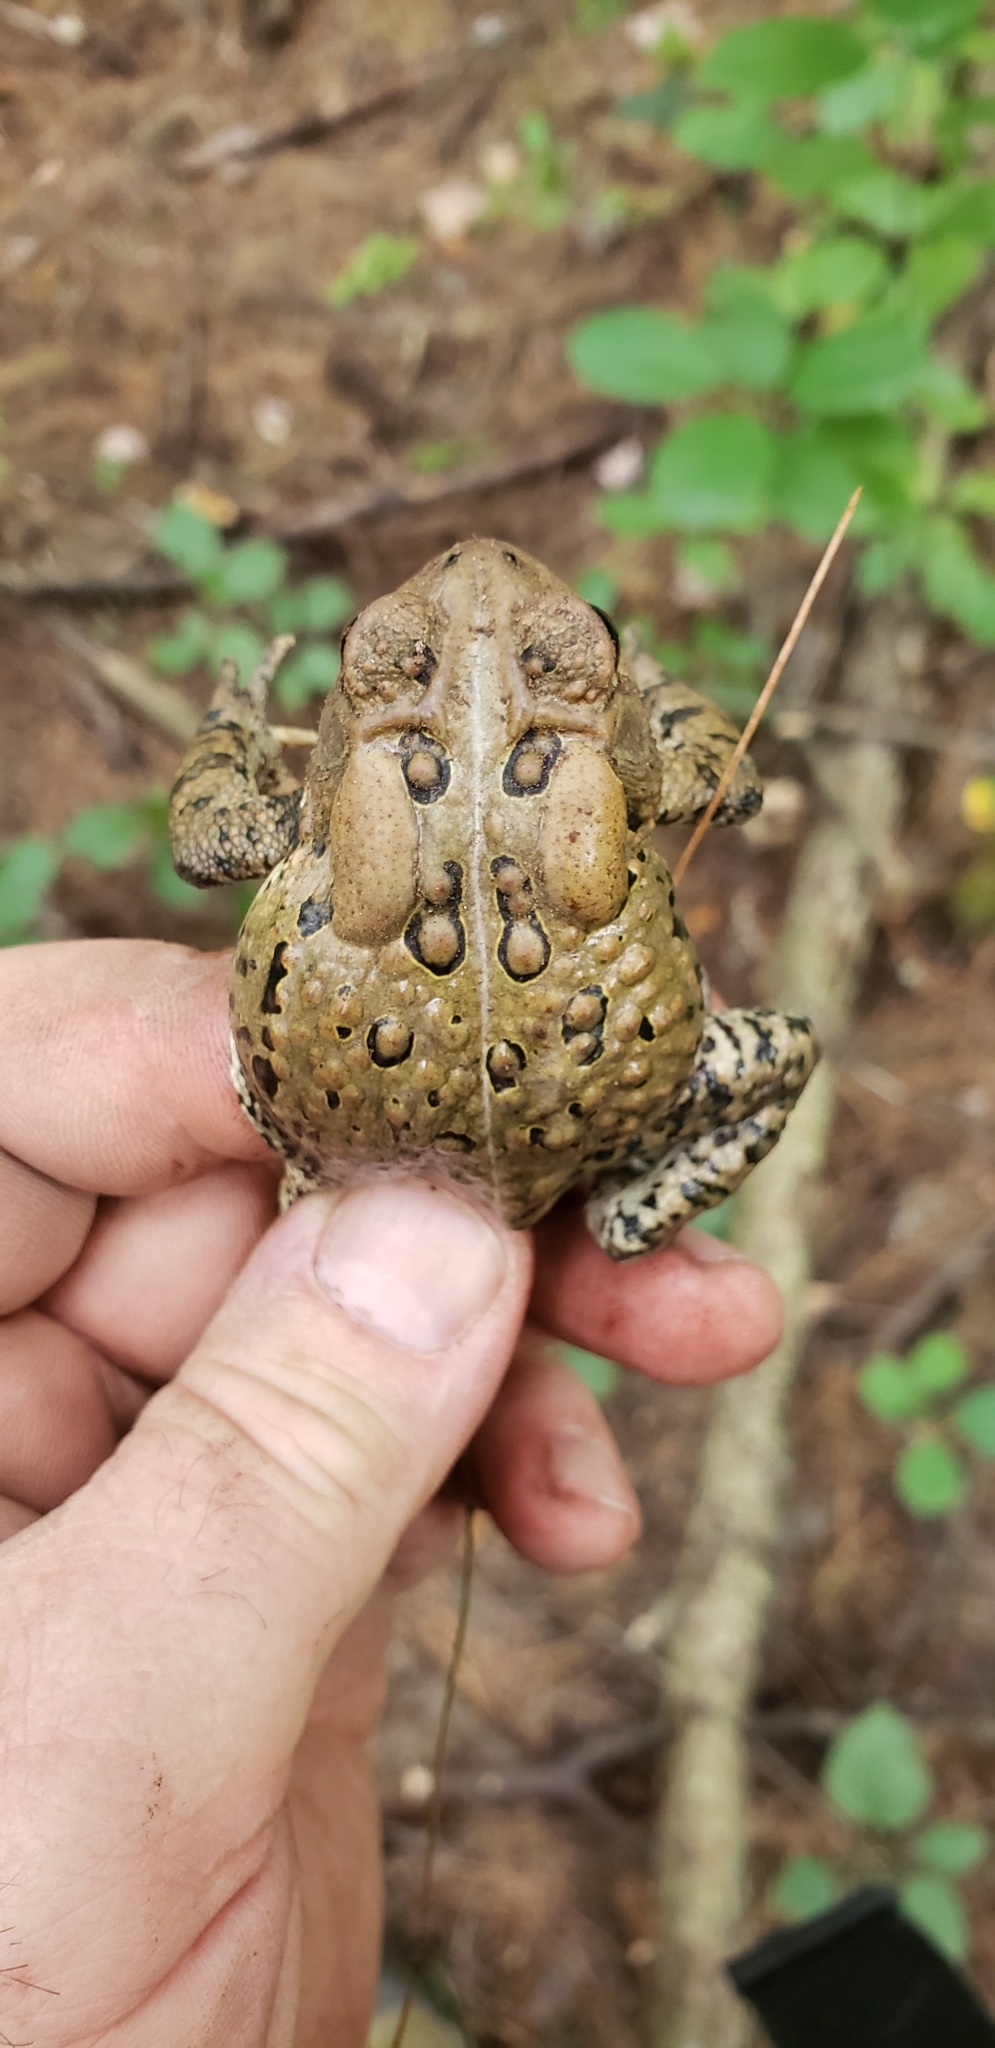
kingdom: Animalia
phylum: Chordata
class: Amphibia
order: Anura
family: Bufonidae
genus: Anaxyrus
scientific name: Anaxyrus americanus
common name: American toad
